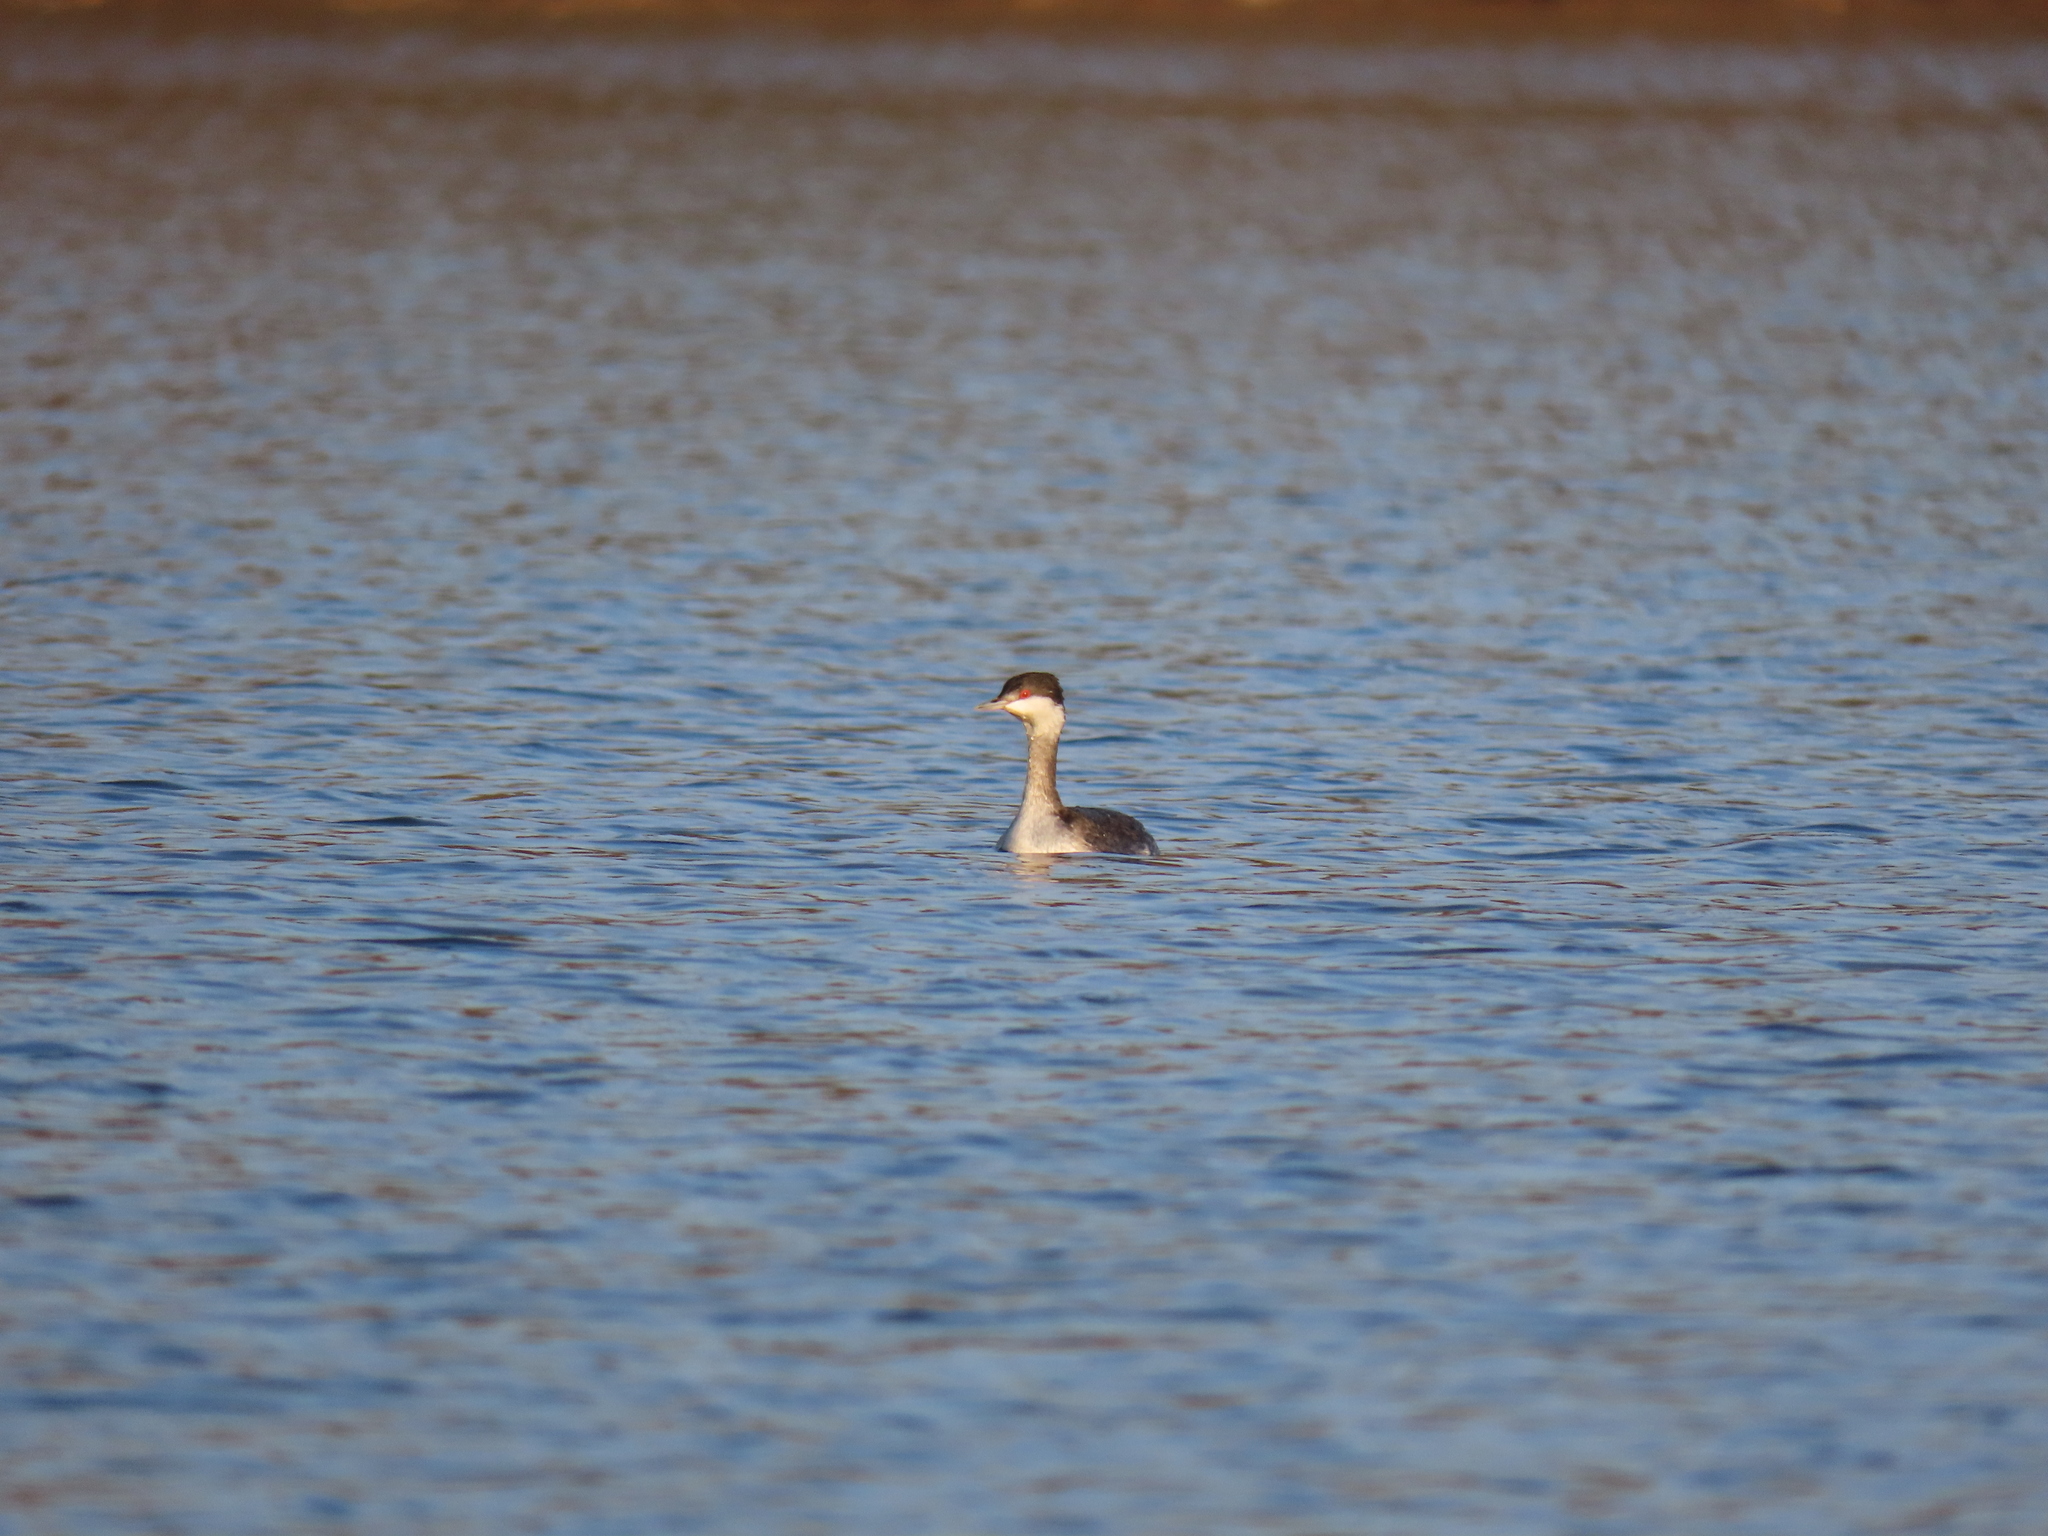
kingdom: Animalia
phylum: Chordata
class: Aves
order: Podicipediformes
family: Podicipedidae
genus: Podiceps
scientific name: Podiceps auritus
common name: Horned grebe
